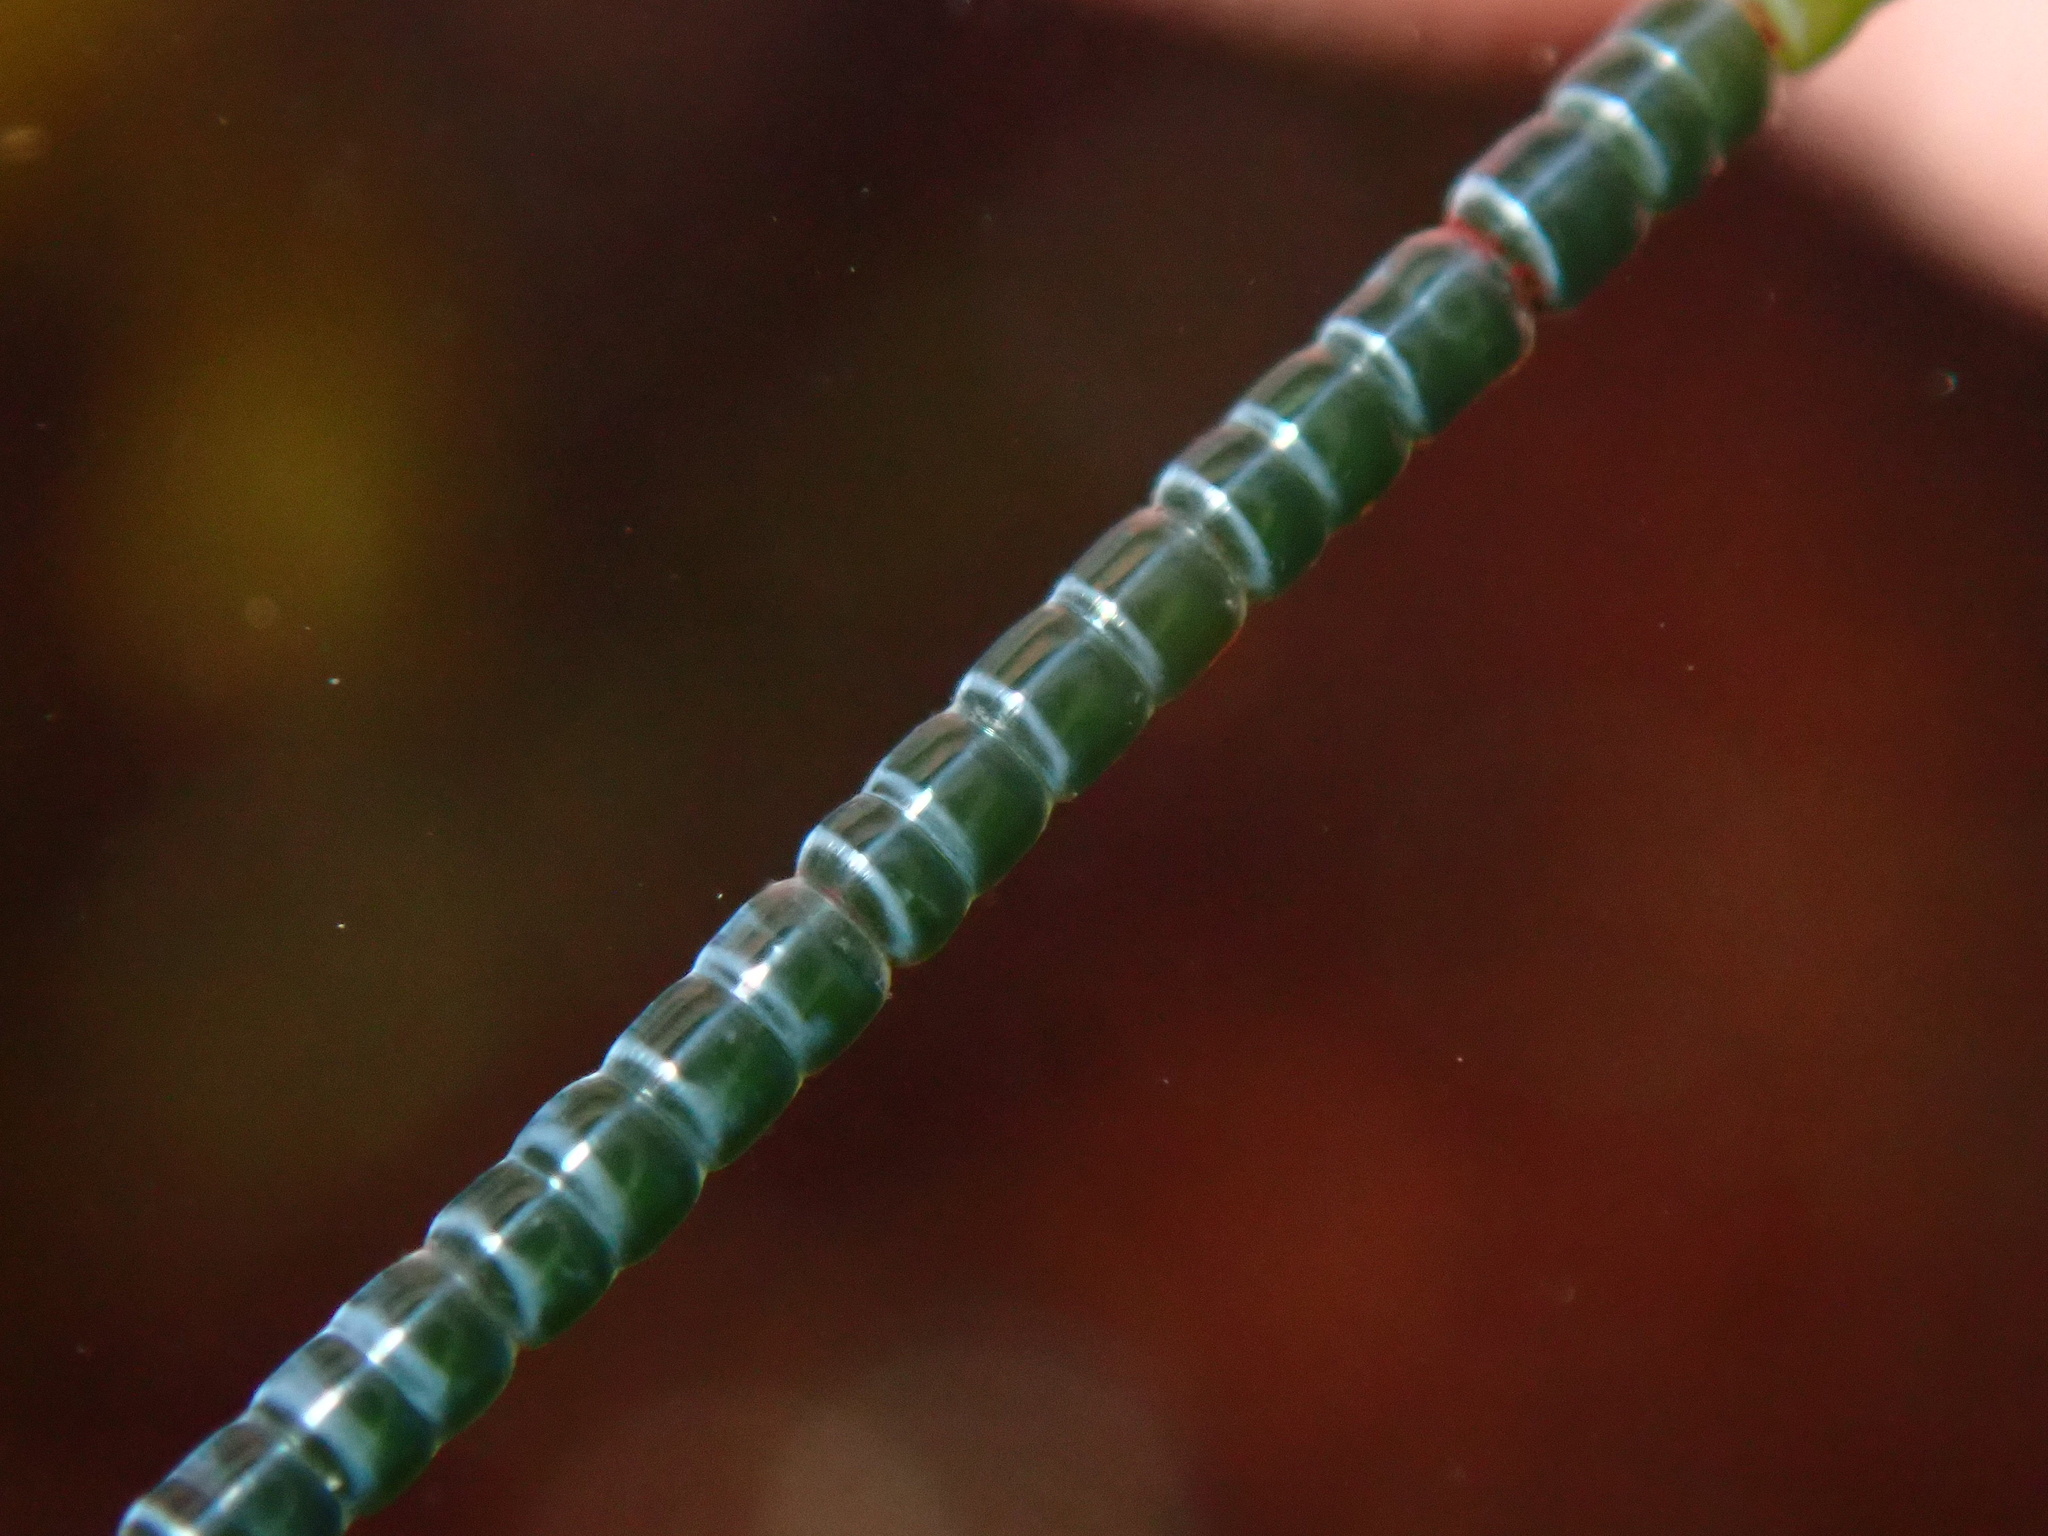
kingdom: Plantae
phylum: Chlorophyta
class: Ulvophyceae
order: Cladophorales
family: Cladophoraceae
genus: Chaetomorpha
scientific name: Chaetomorpha spiralis
